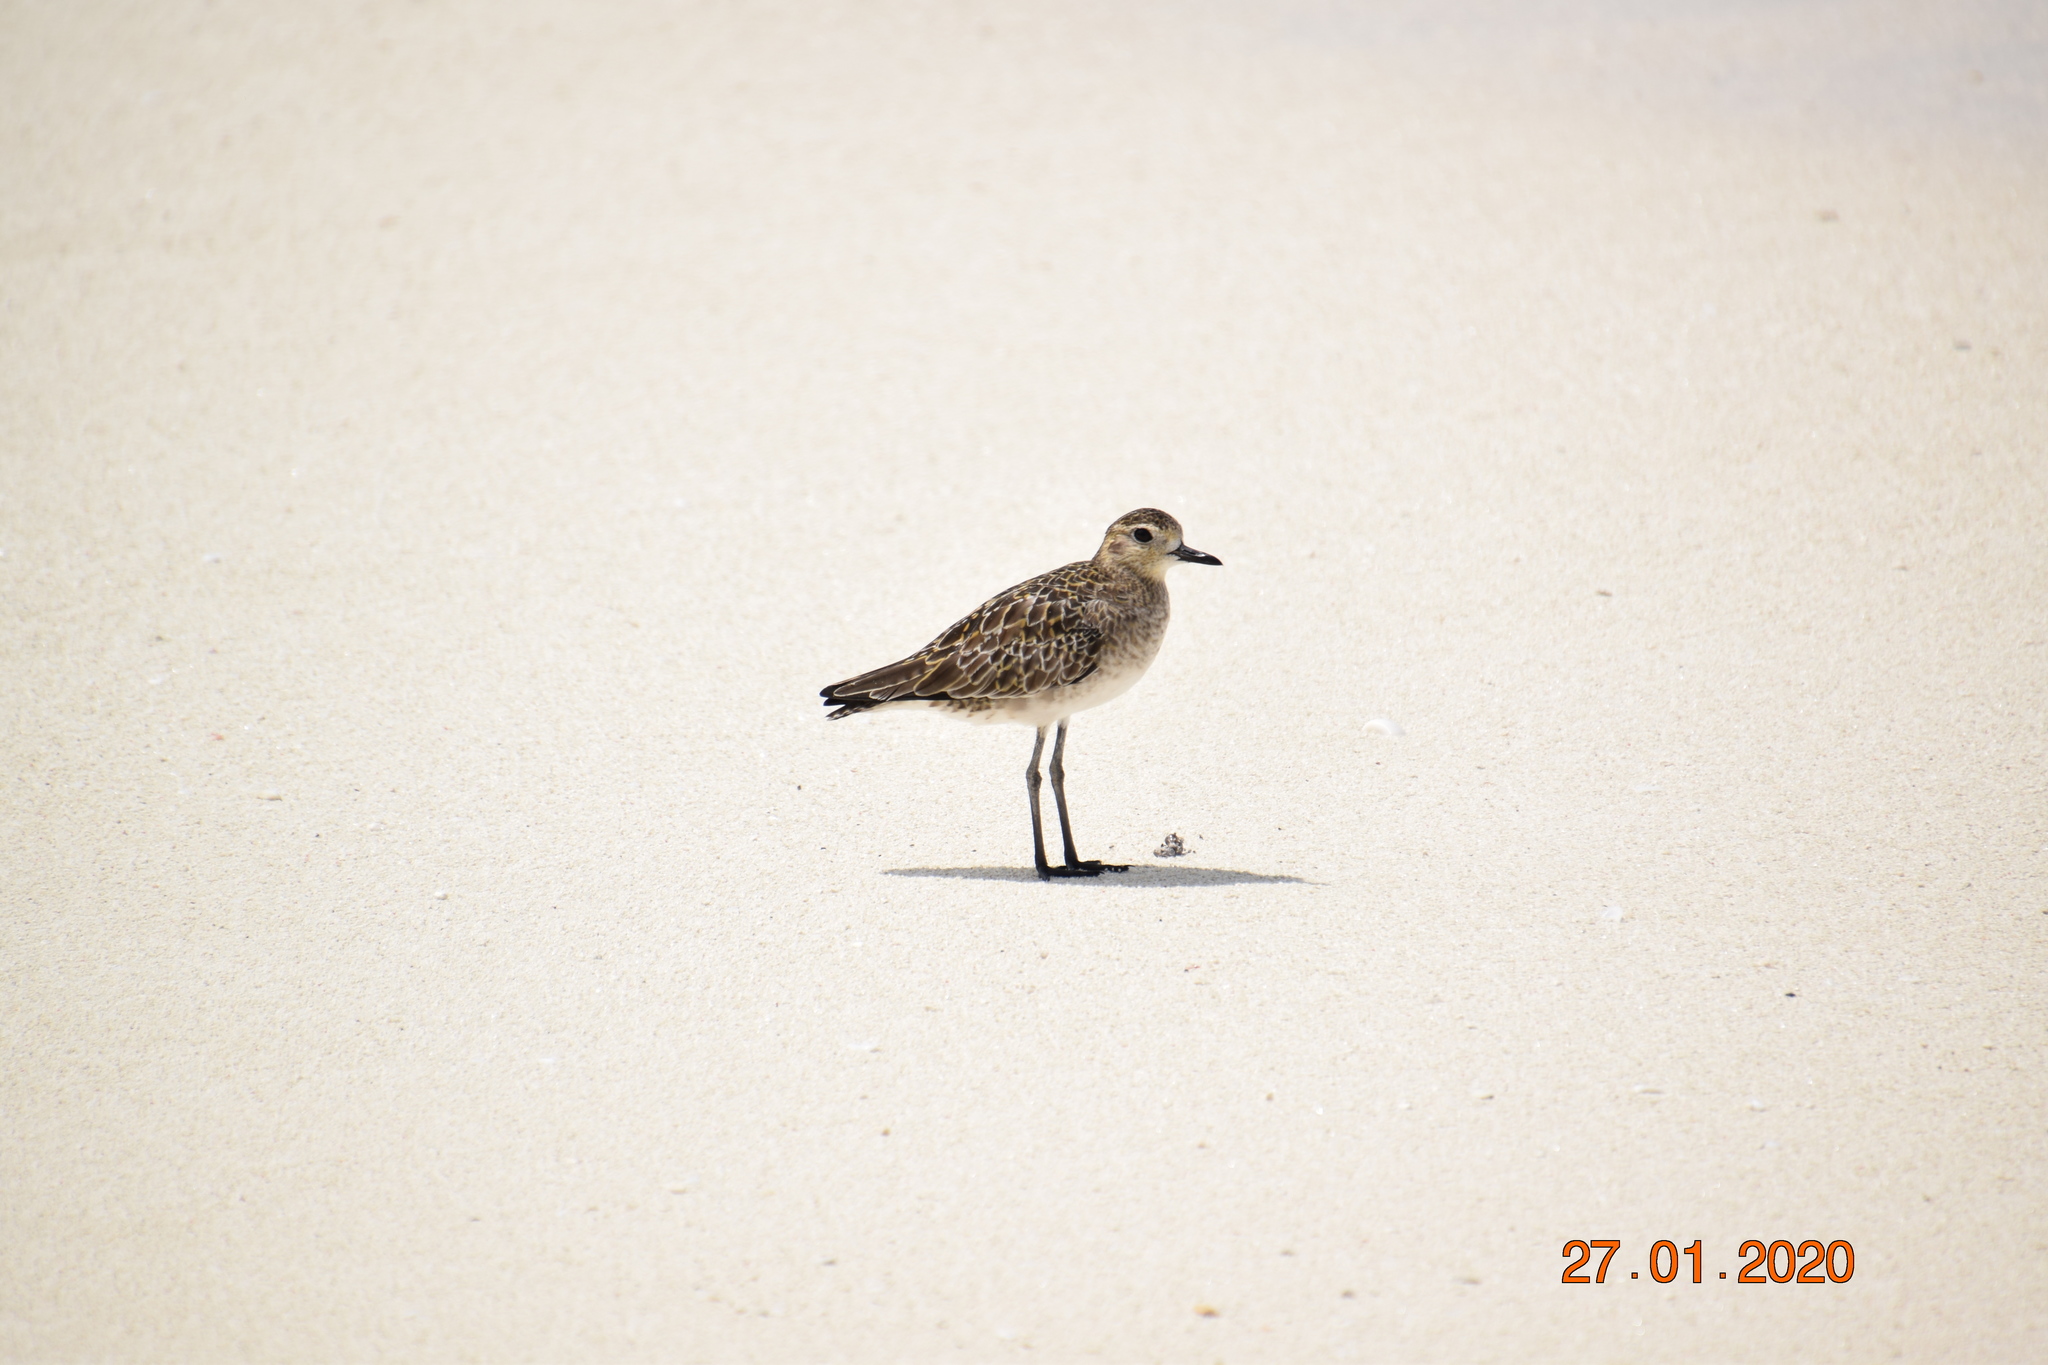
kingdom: Animalia
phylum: Chordata
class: Aves
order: Charadriiformes
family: Charadriidae
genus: Pluvialis
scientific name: Pluvialis fulva
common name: Pacific golden plover
